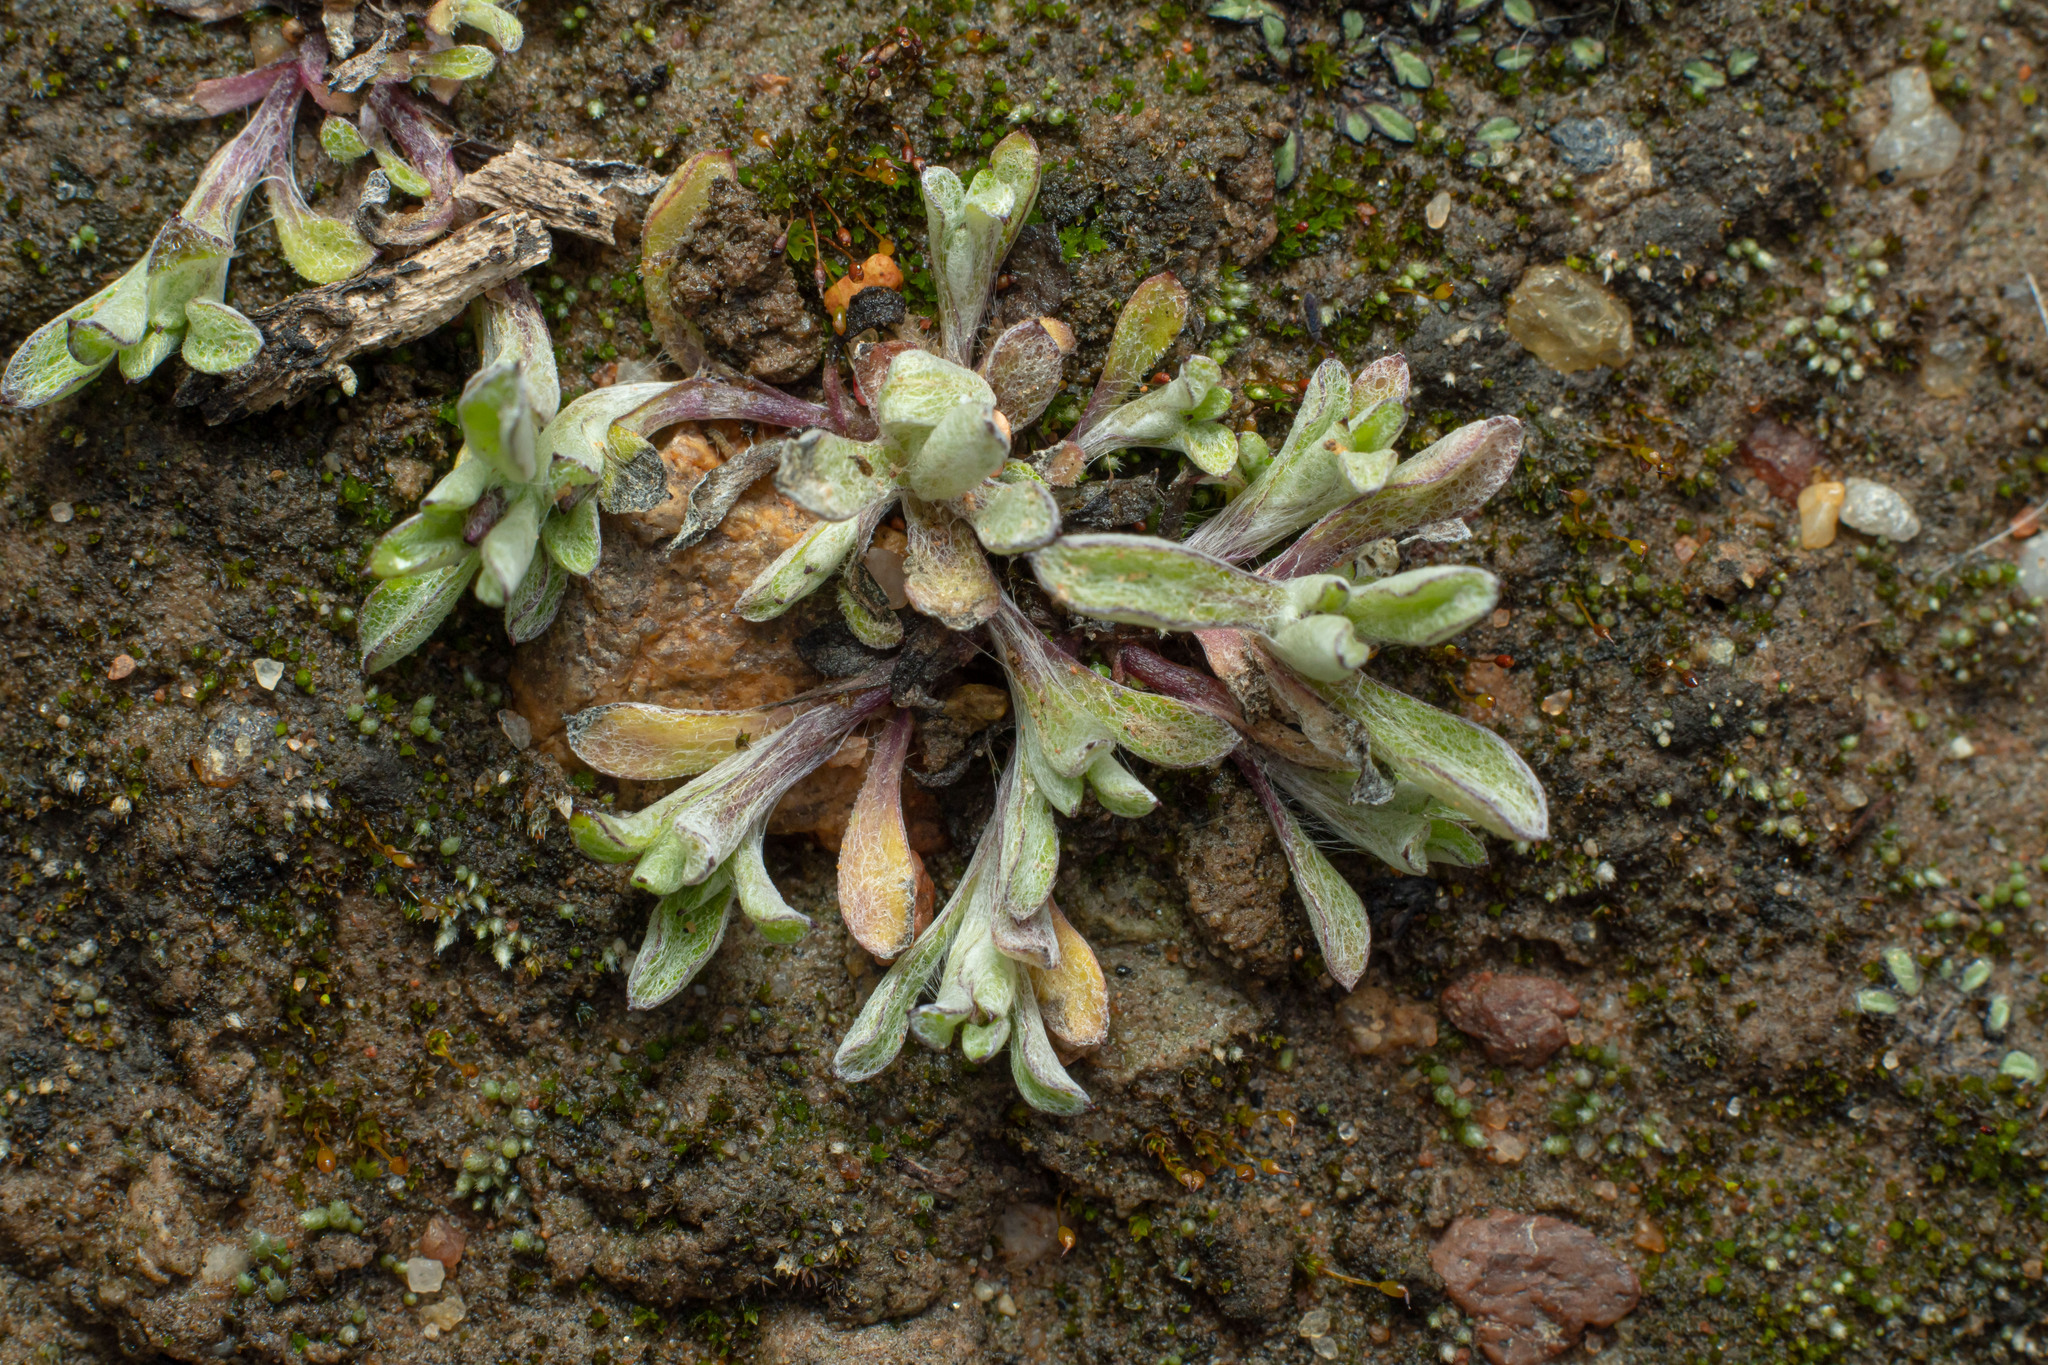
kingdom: Plantae
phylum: Tracheophyta
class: Magnoliopsida
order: Asterales
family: Asteraceae
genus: Gamochaeta
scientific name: Gamochaeta stagnalis
